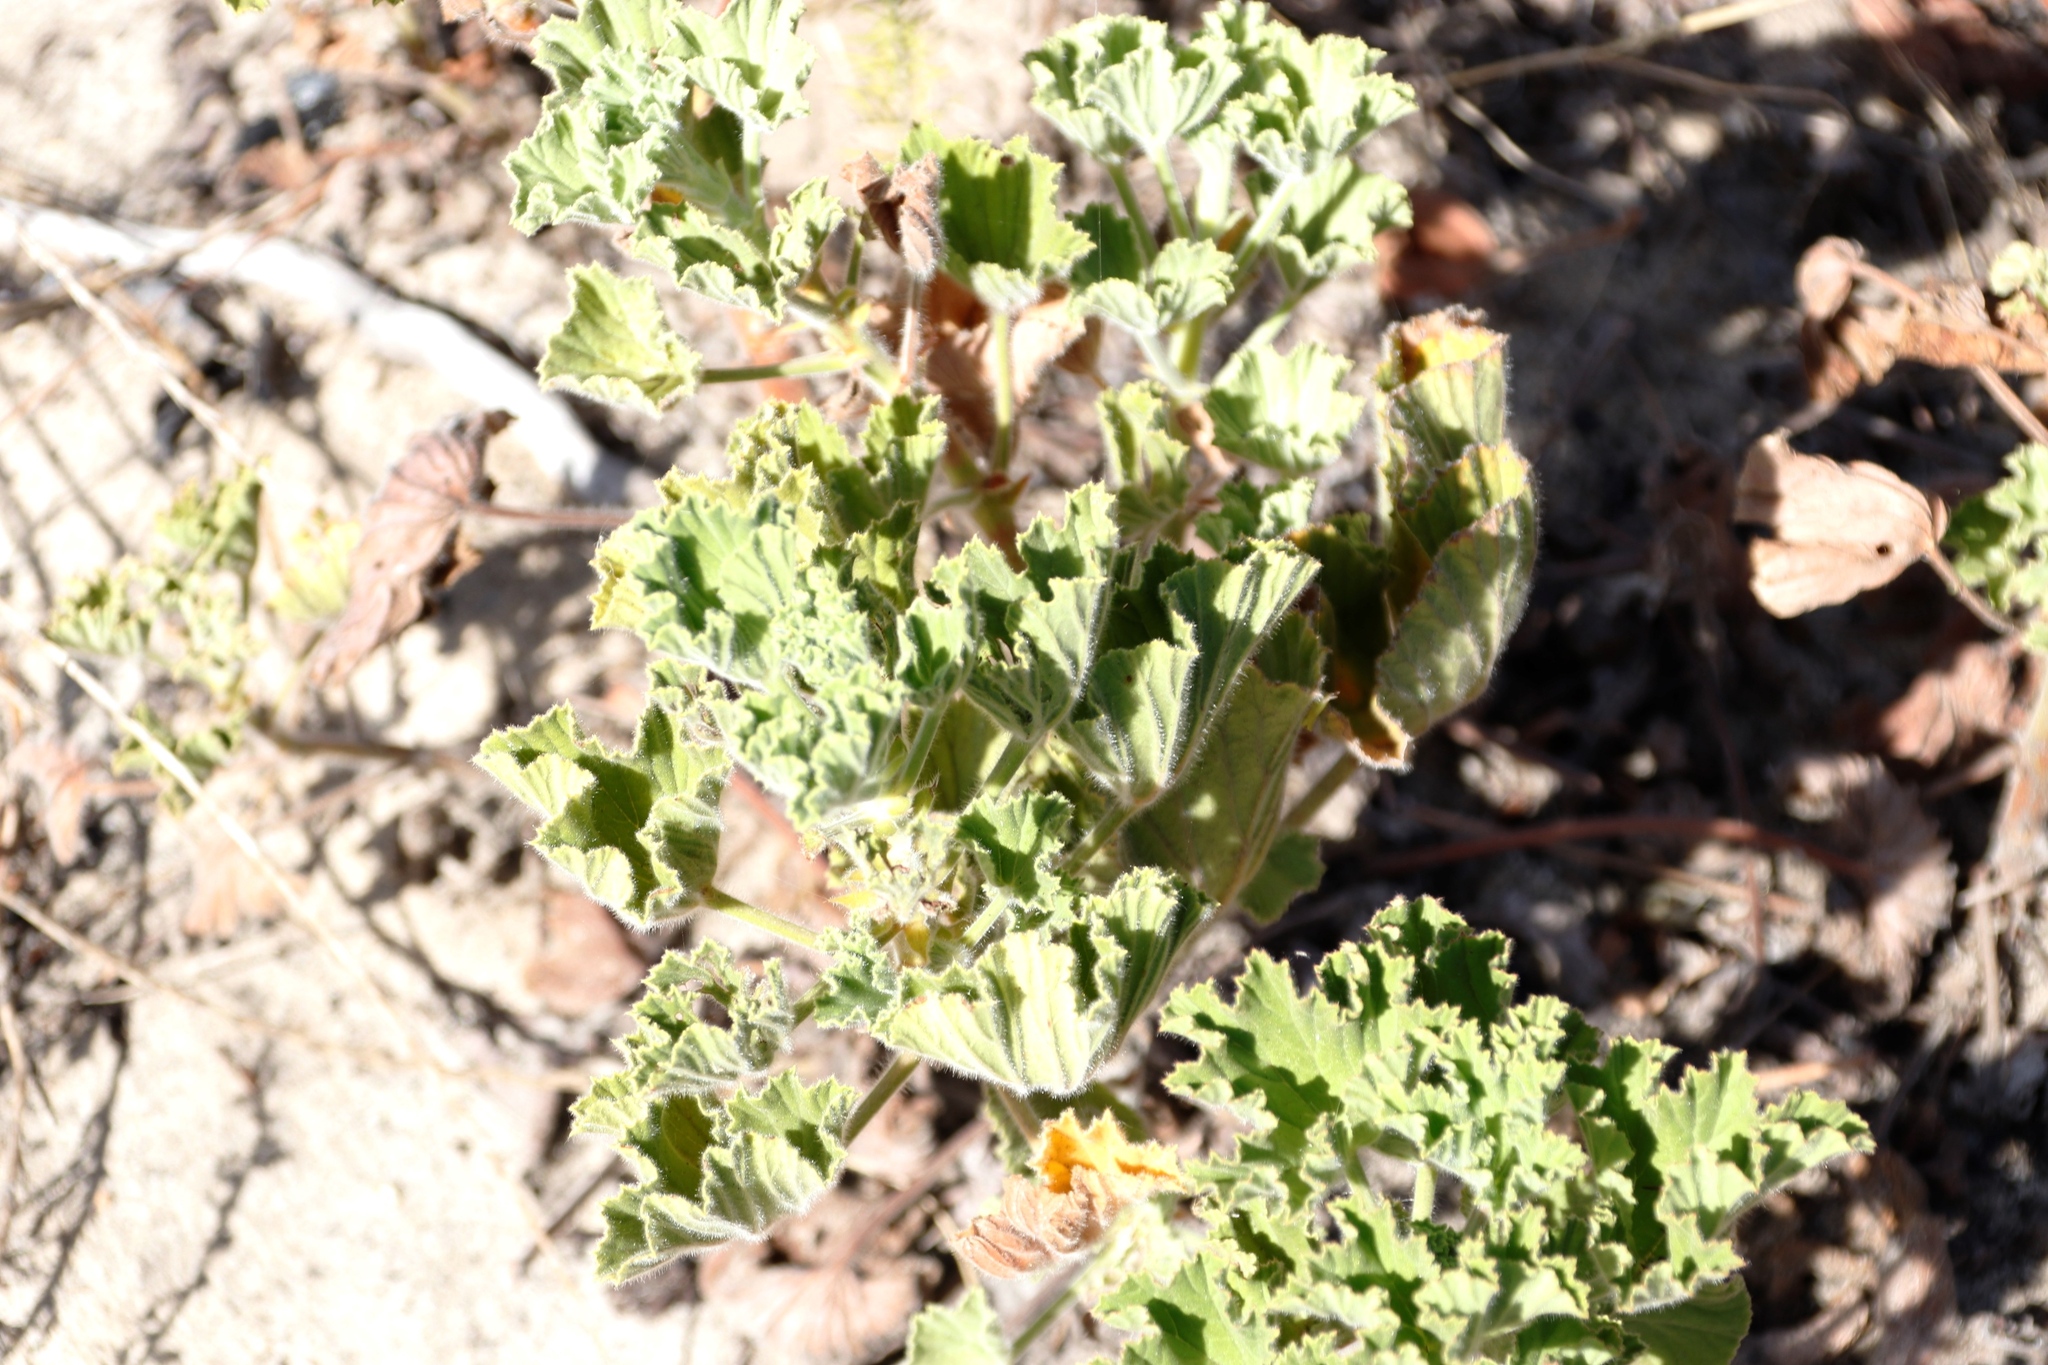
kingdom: Plantae
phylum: Tracheophyta
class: Magnoliopsida
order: Geraniales
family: Geraniaceae
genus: Pelargonium
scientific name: Pelargonium cucullatum
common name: Tree pelargonium
